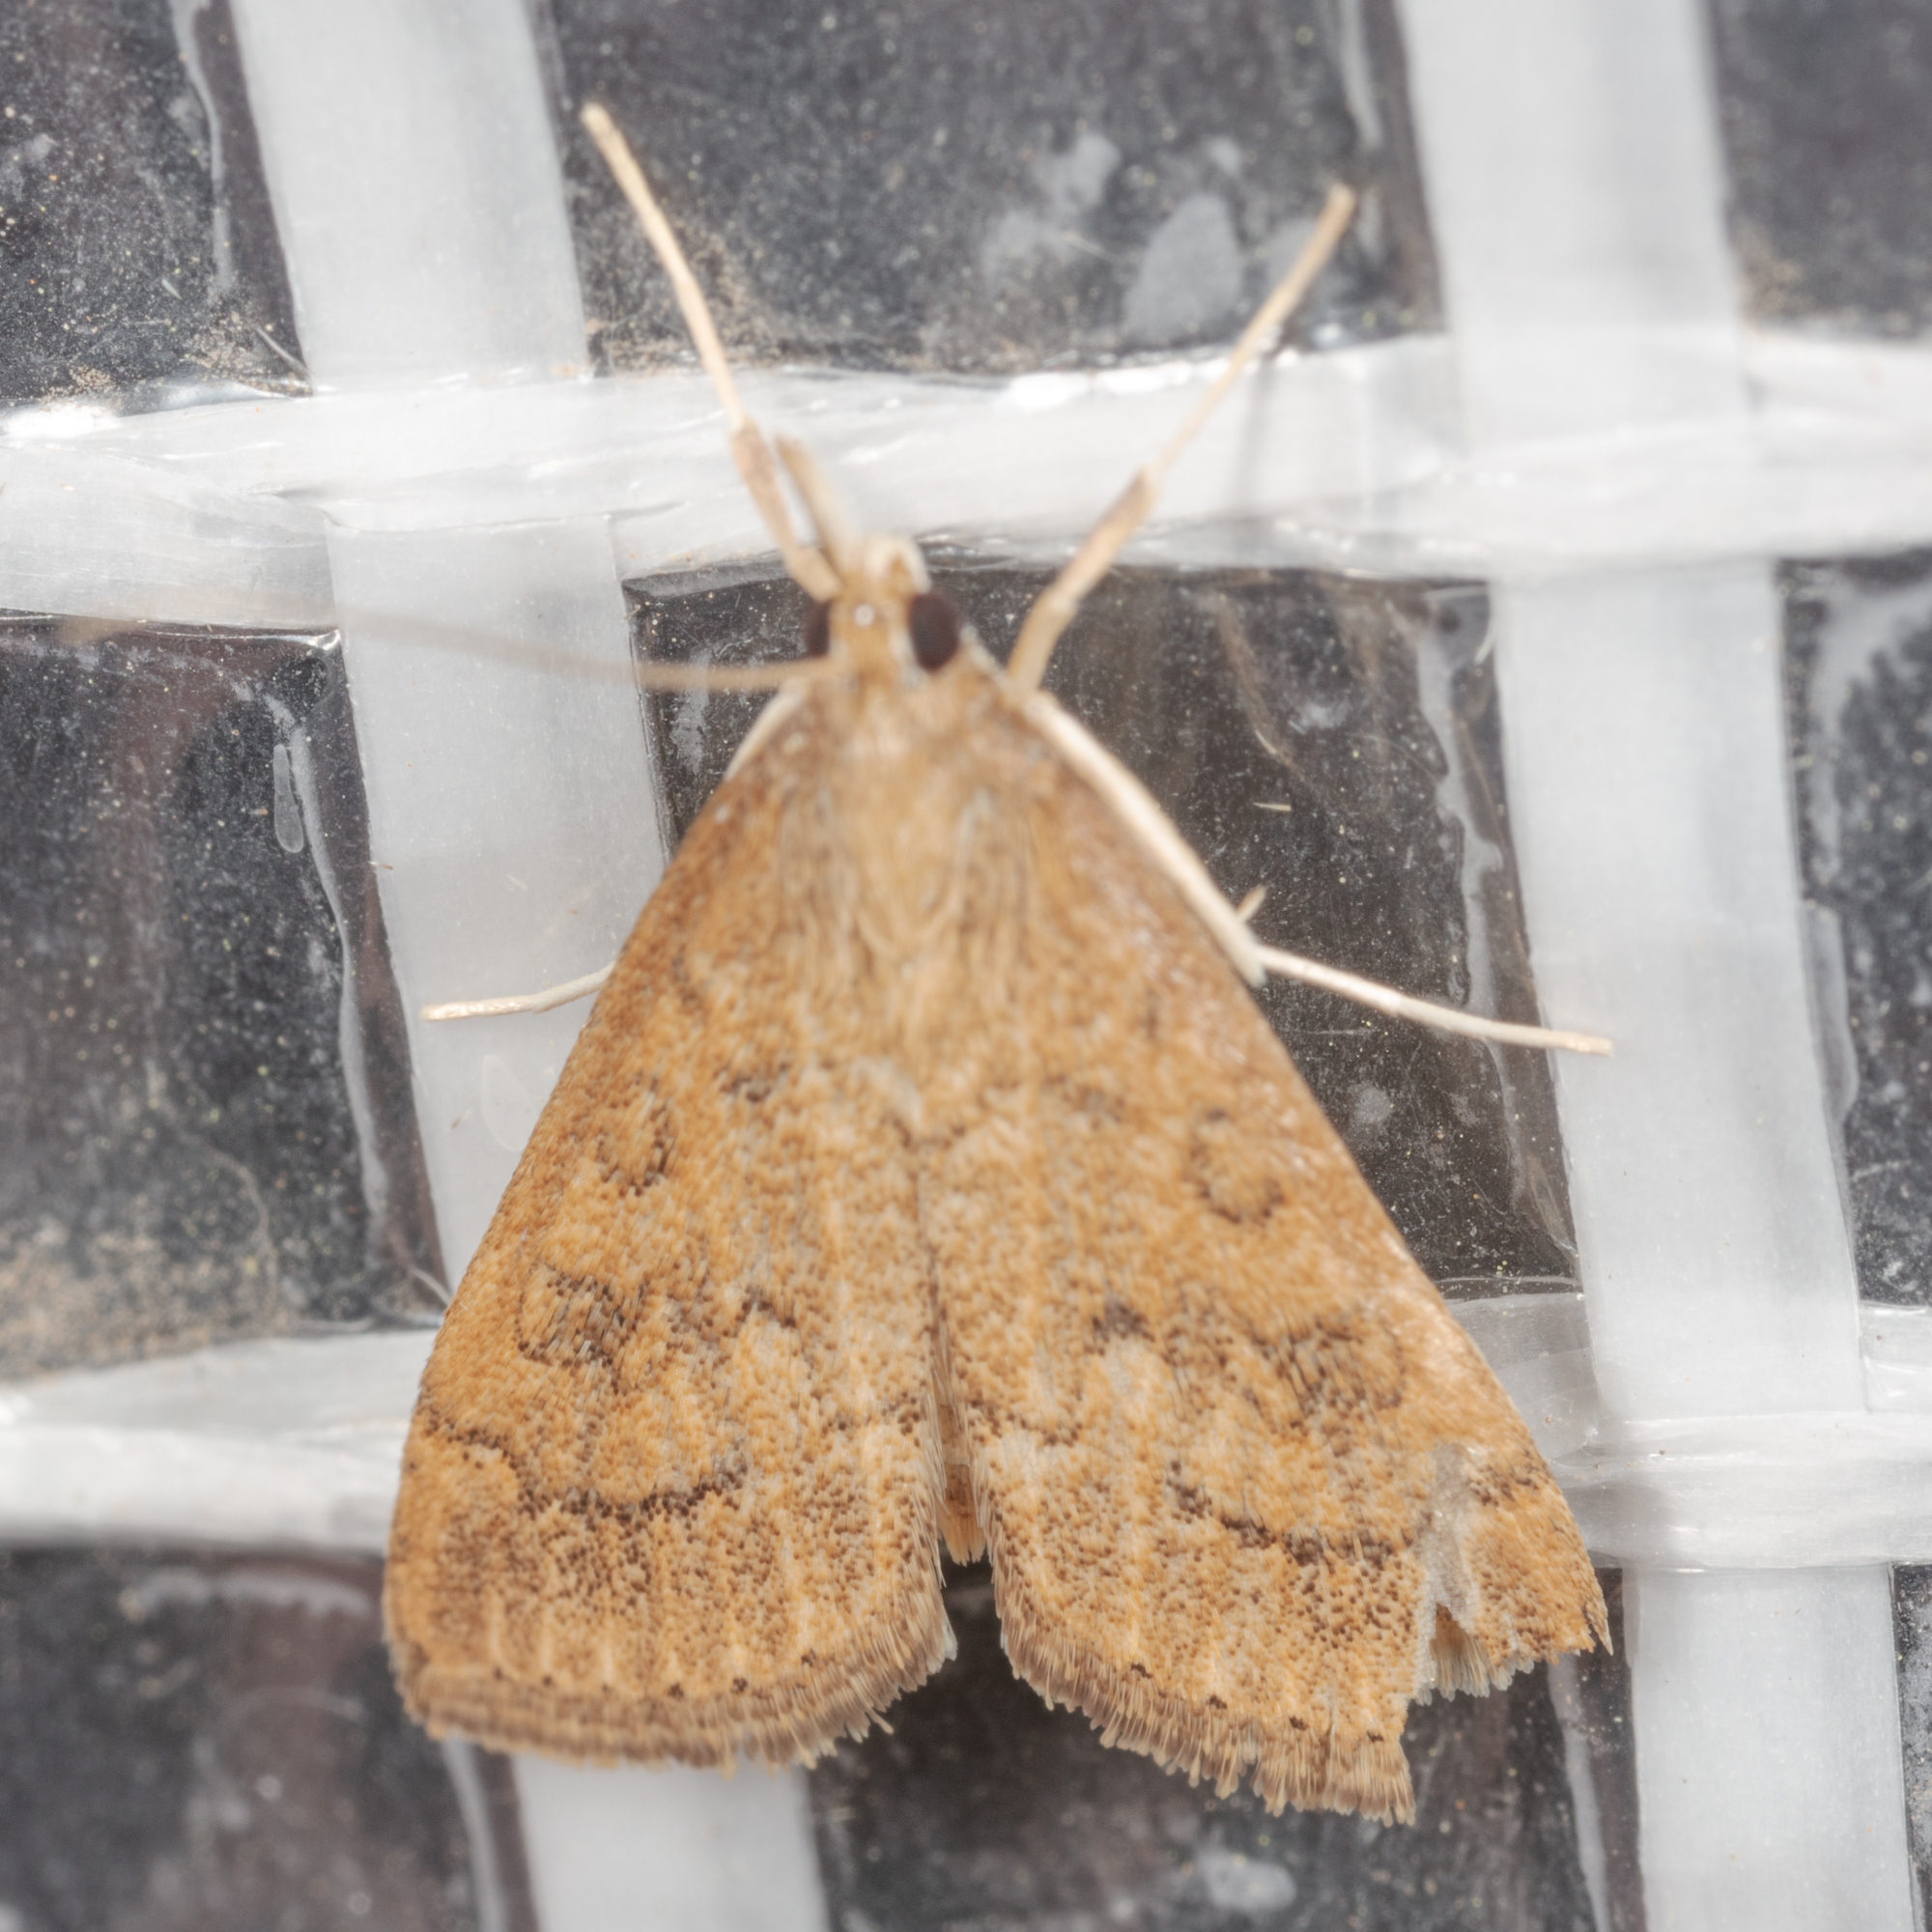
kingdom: Animalia
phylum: Arthropoda
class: Insecta
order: Lepidoptera
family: Crambidae
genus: Udea
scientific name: Udea rubigalis
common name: Celery leaftier moth
